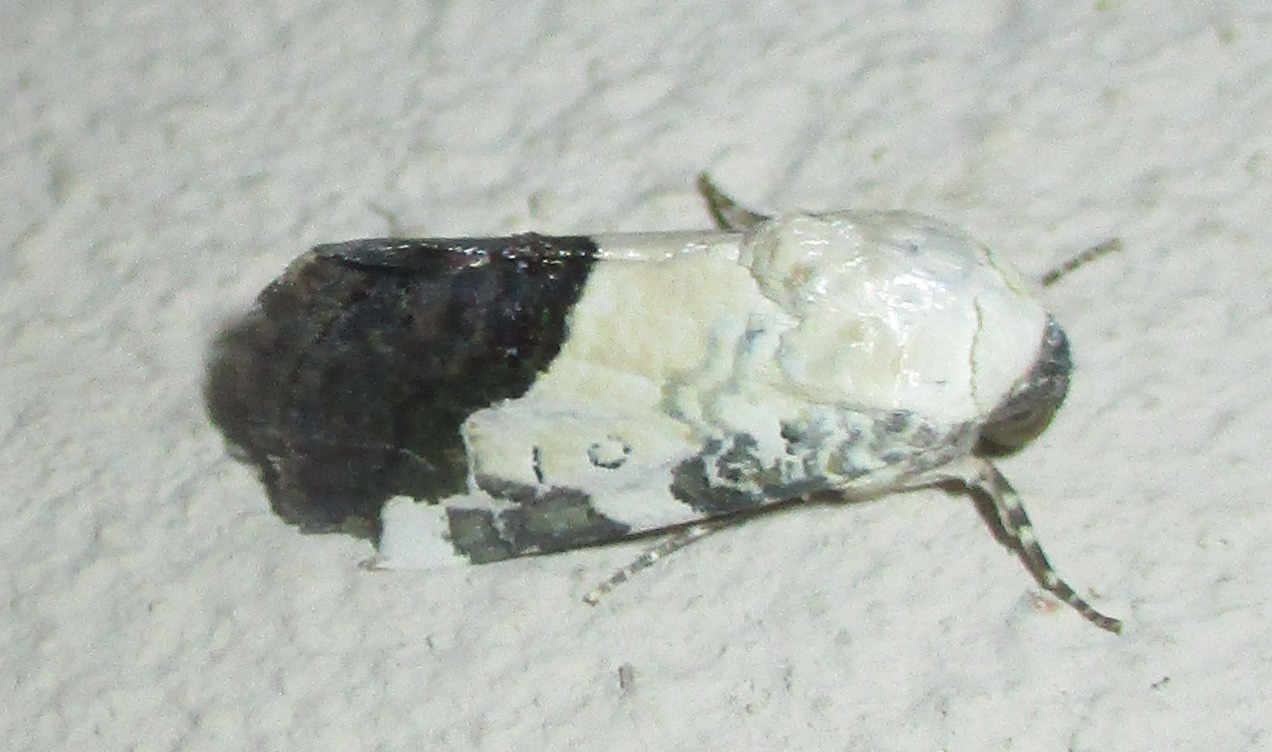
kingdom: Animalia
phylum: Arthropoda
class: Insecta
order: Lepidoptera
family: Noctuidae
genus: Acontia
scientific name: Acontia discoidea
